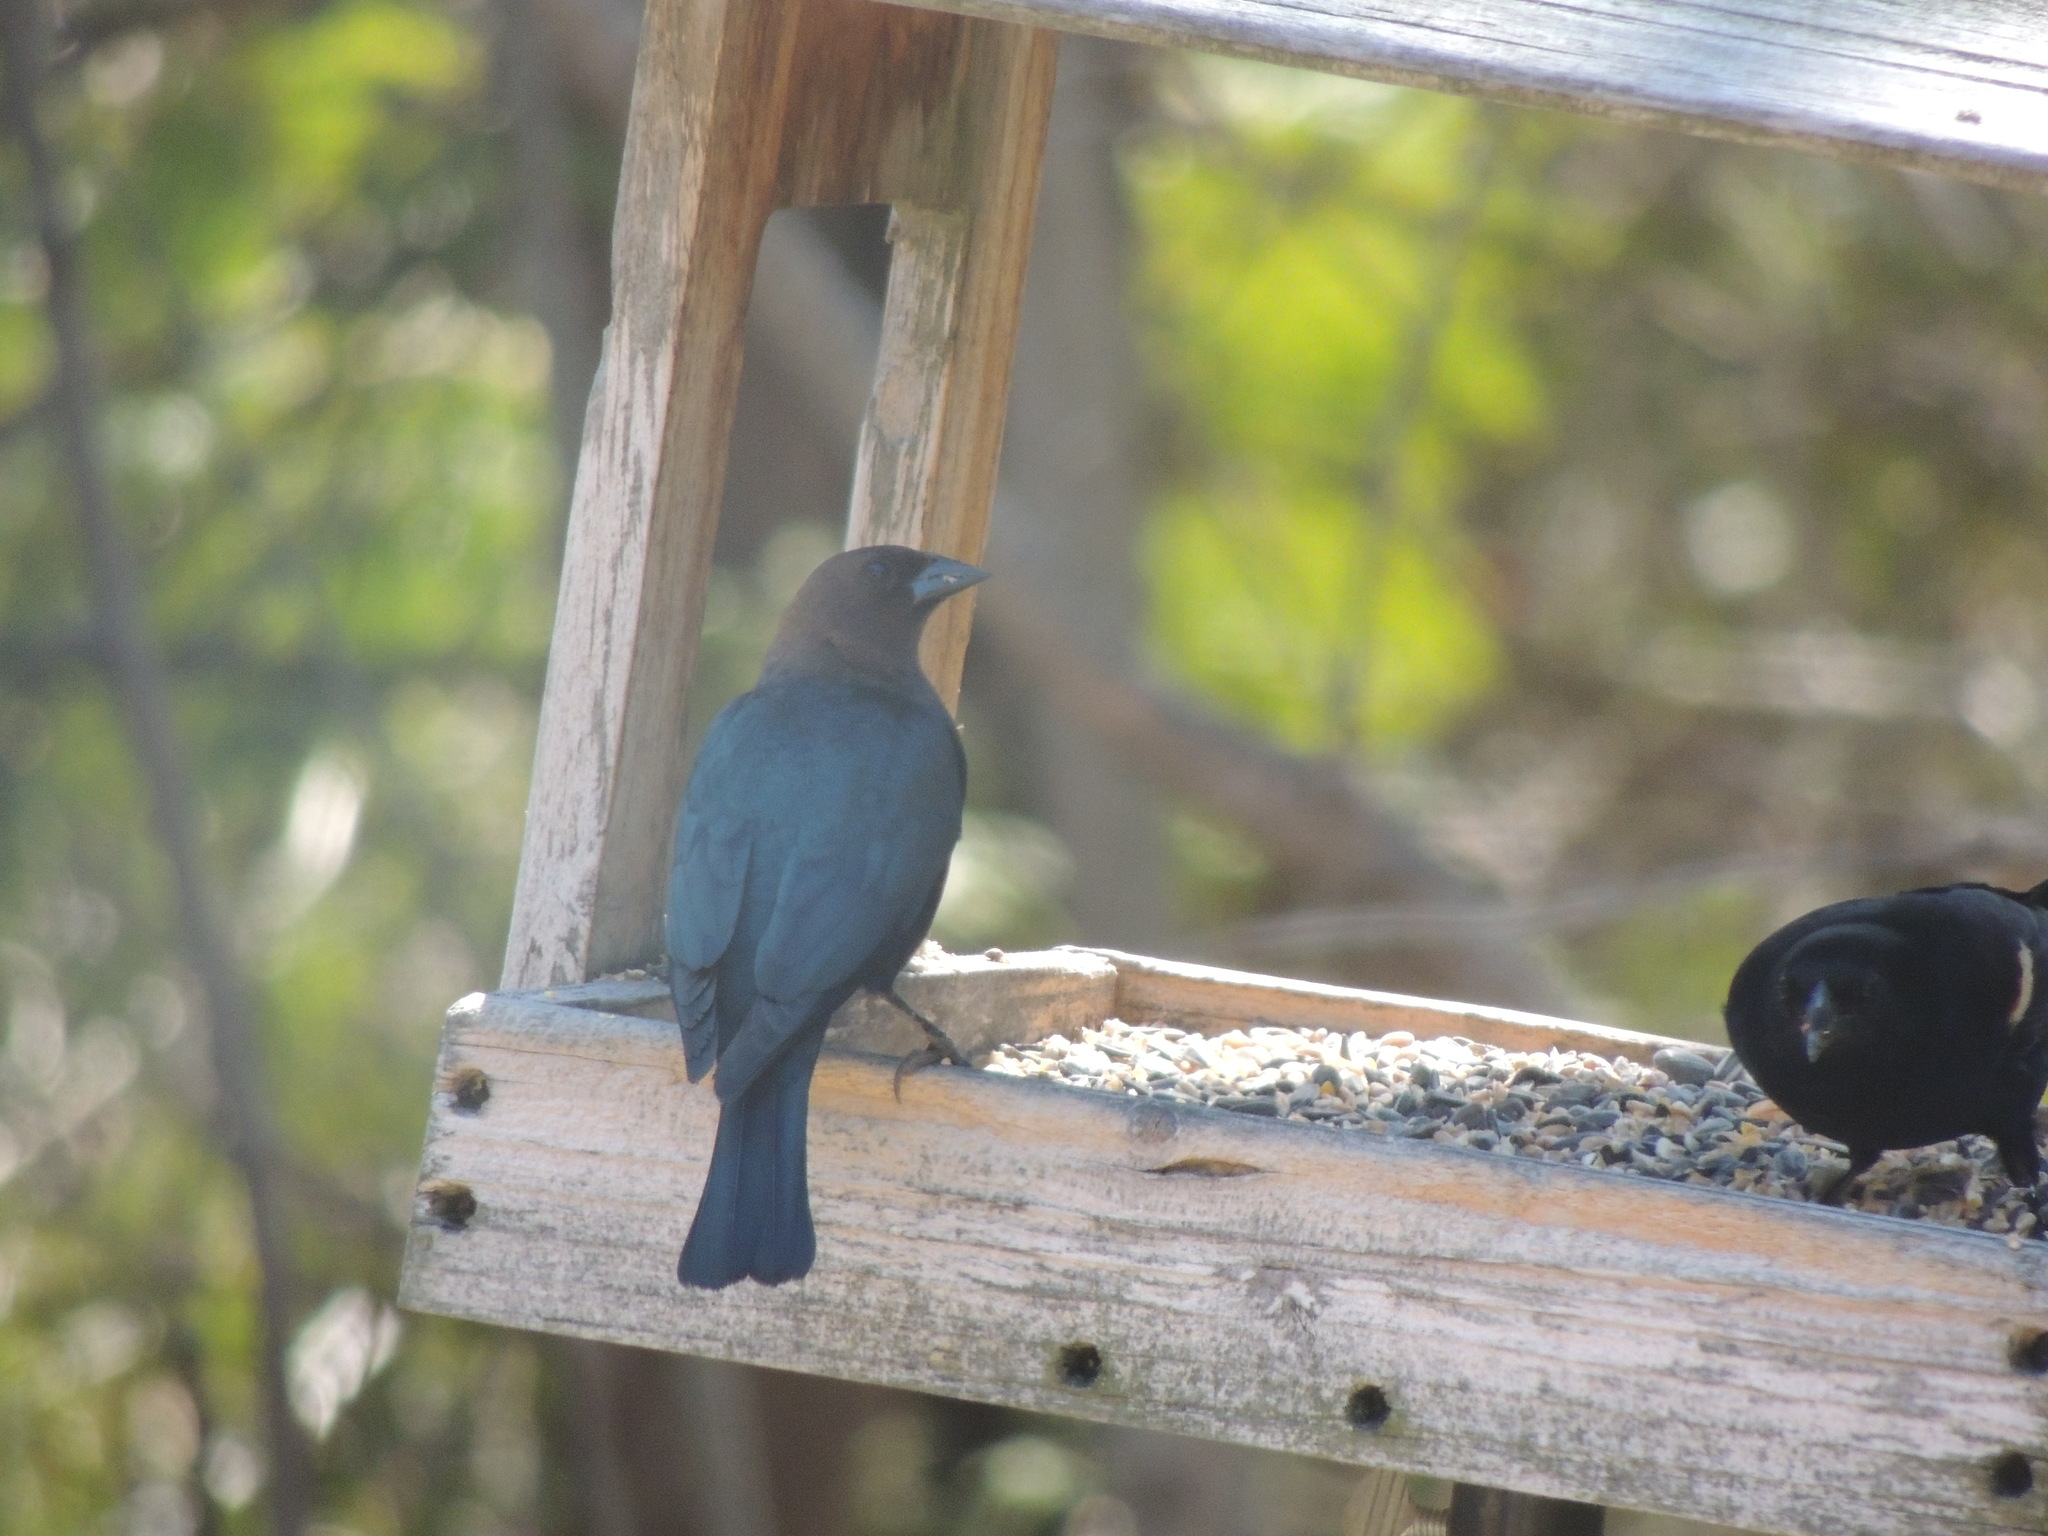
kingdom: Animalia
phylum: Chordata
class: Aves
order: Passeriformes
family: Icteridae
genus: Molothrus
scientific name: Molothrus ater
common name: Brown-headed cowbird
